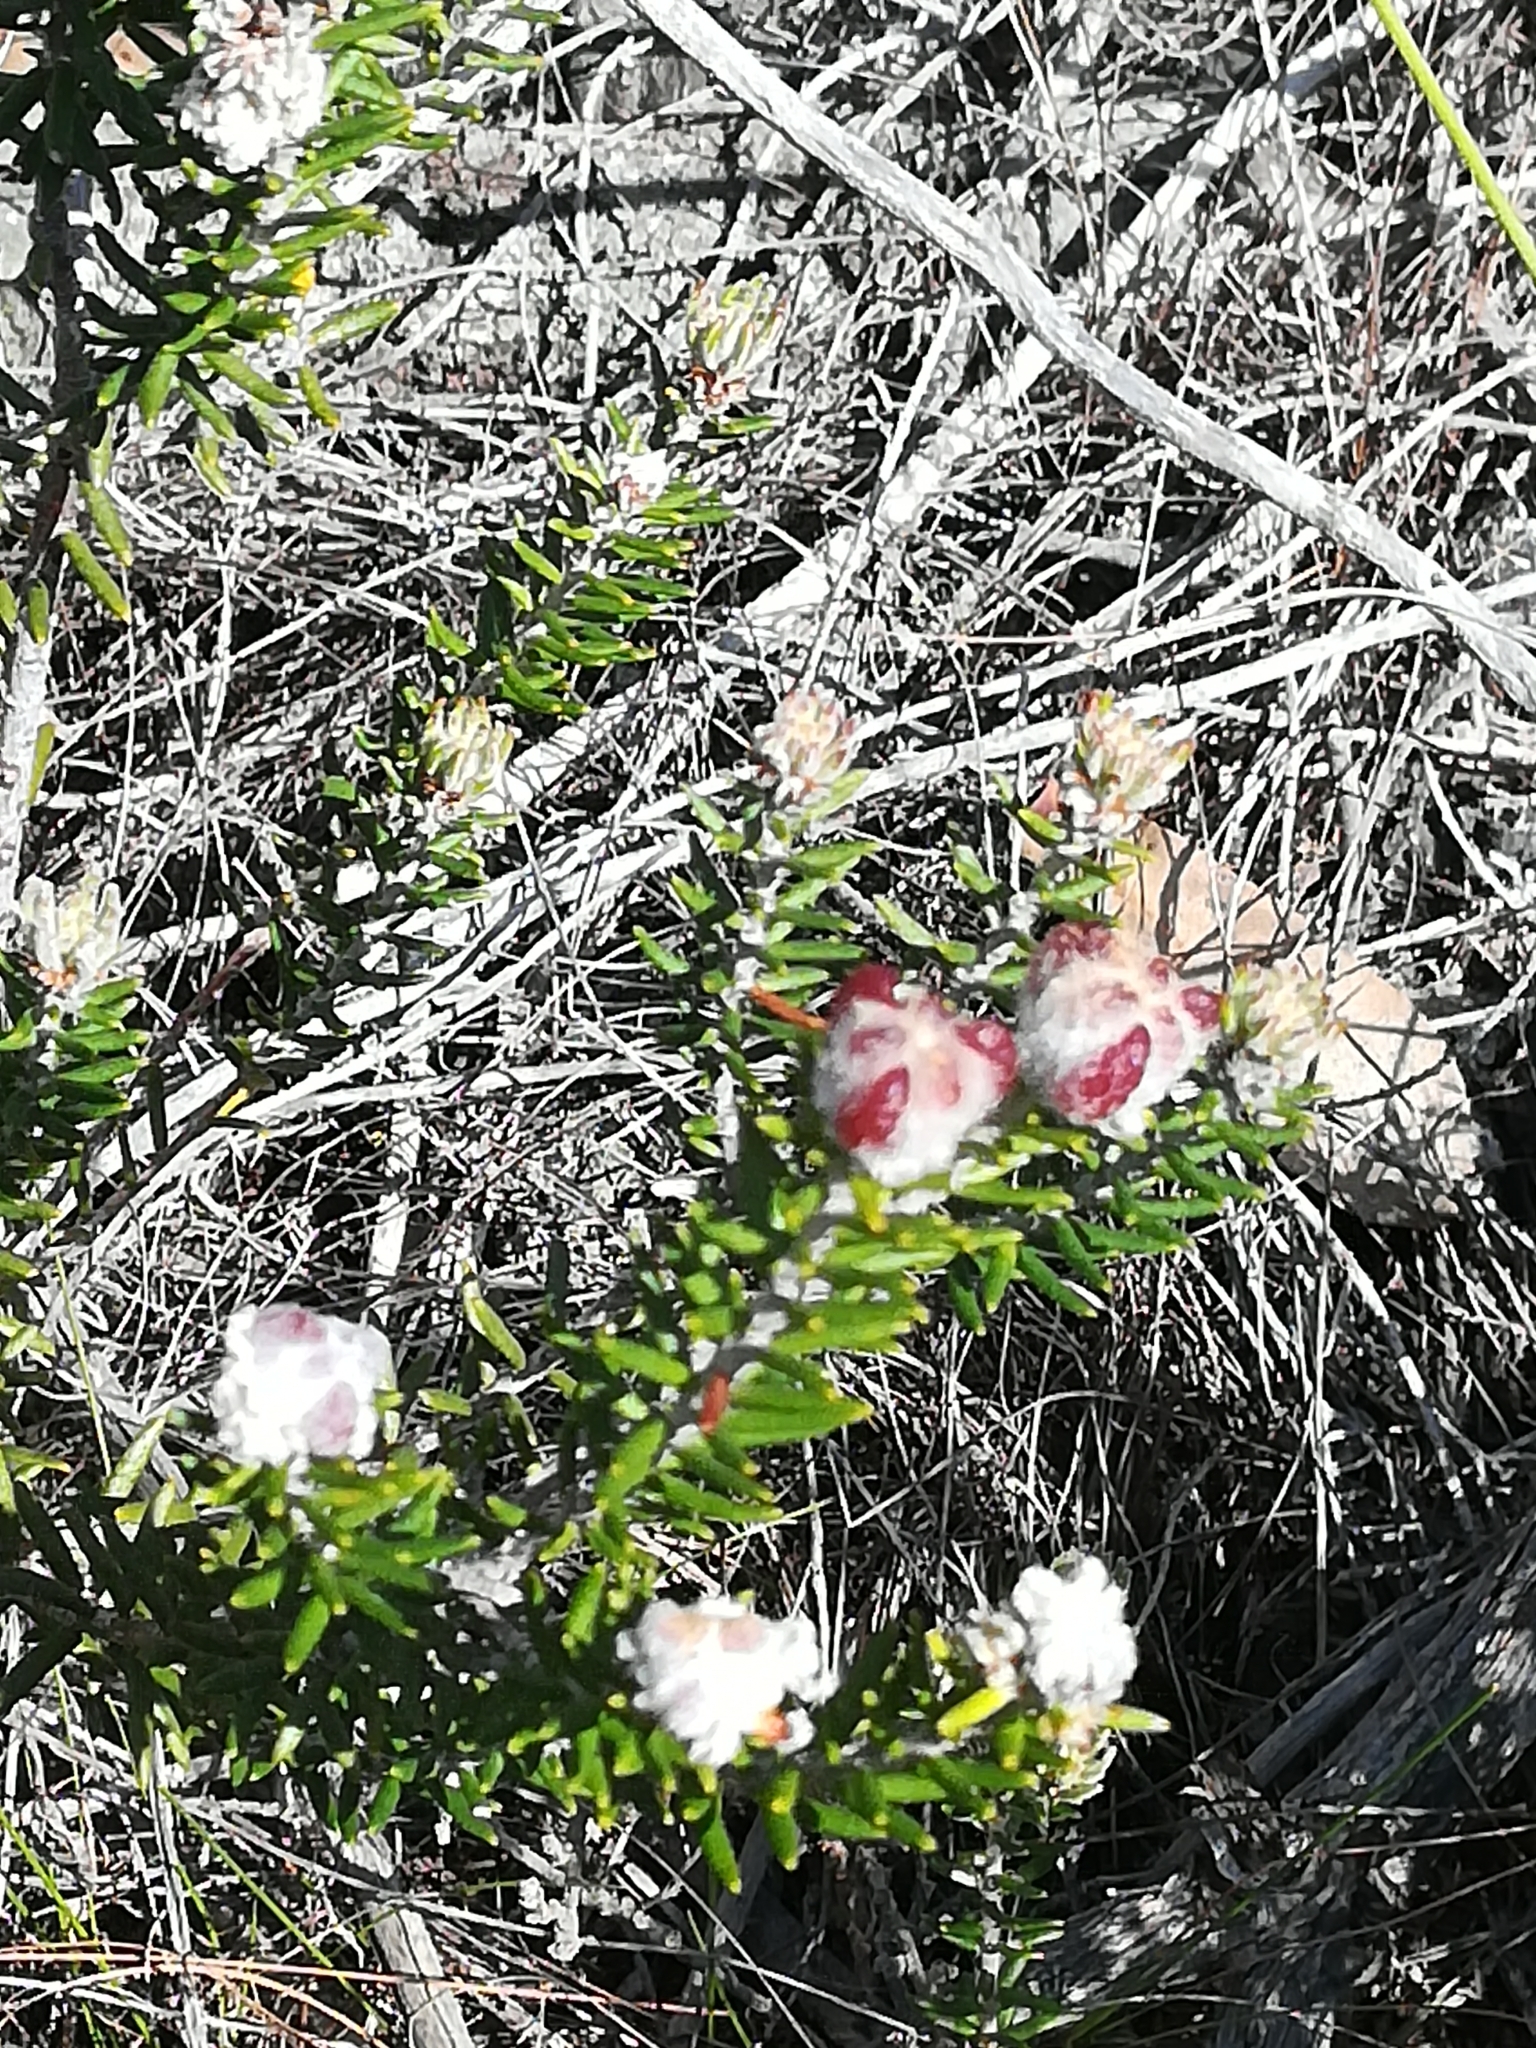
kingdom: Plantae
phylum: Tracheophyta
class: Magnoliopsida
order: Rosales
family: Rhamnaceae
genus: Trichocephalus
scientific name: Trichocephalus stipularis
